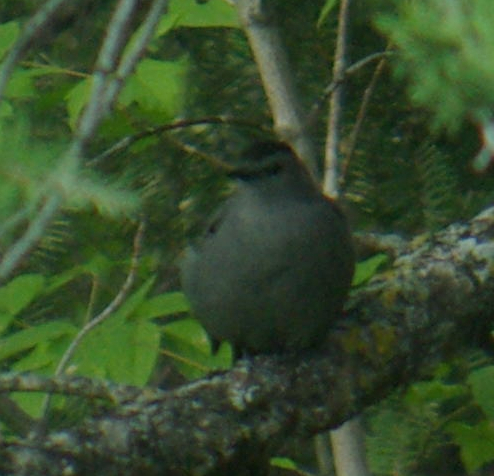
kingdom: Animalia
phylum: Chordata
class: Aves
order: Passeriformes
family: Mimidae
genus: Dumetella
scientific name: Dumetella carolinensis
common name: Gray catbird
